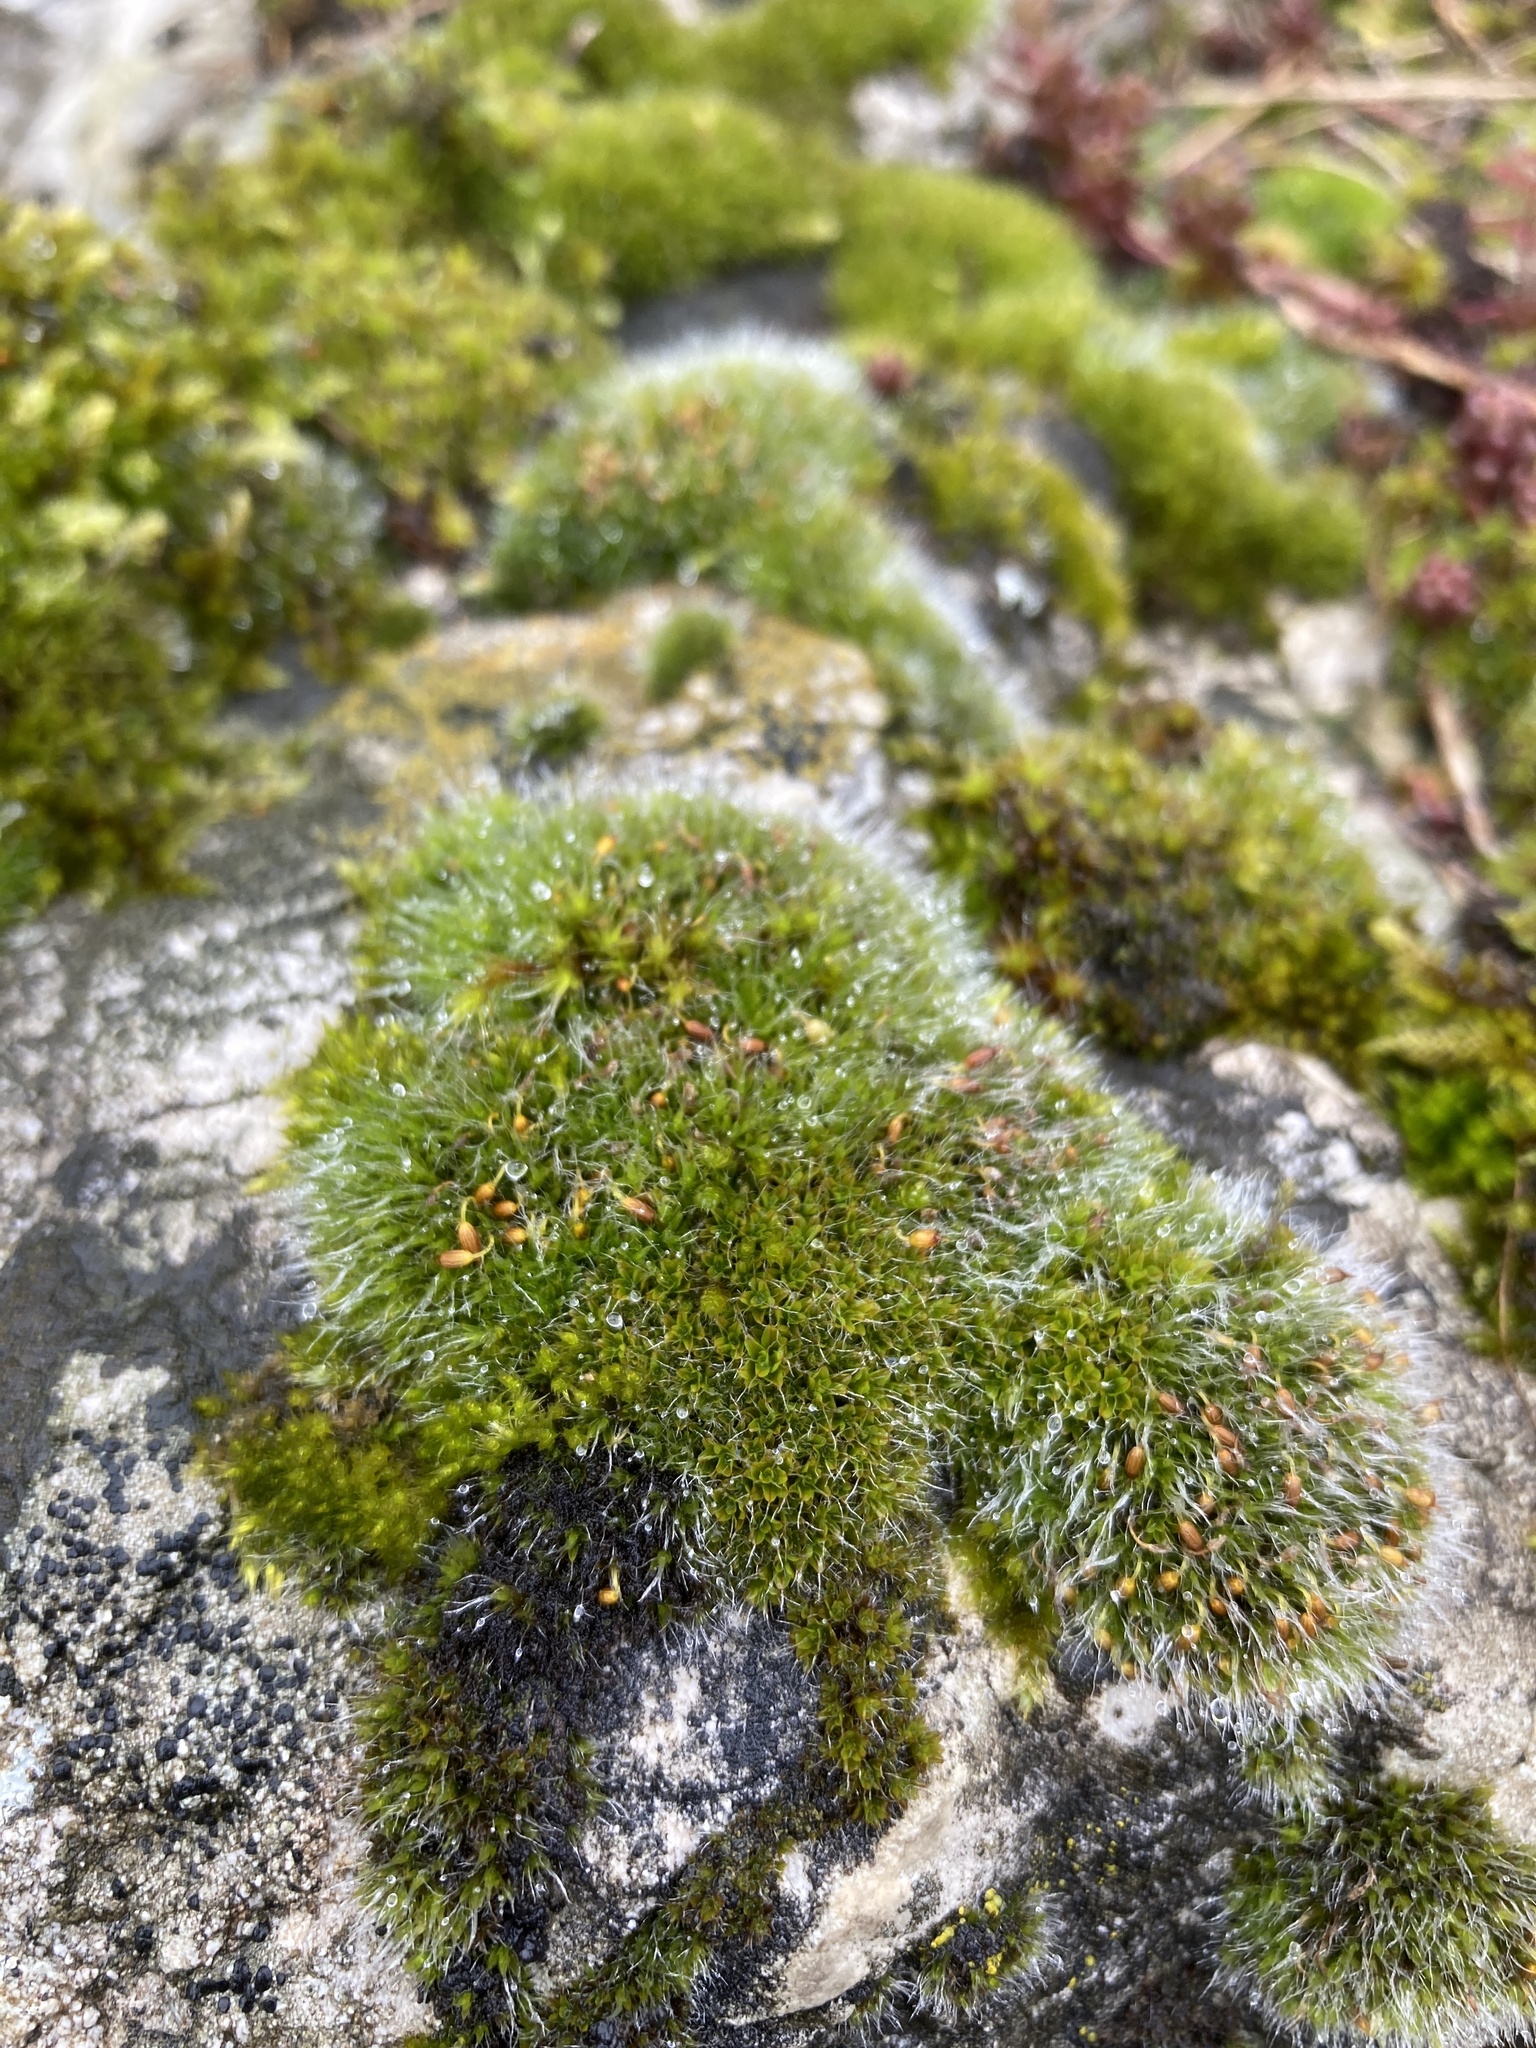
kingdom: Plantae
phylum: Bryophyta
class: Bryopsida
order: Grimmiales
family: Grimmiaceae
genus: Grimmia
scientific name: Grimmia pulvinata
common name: Grey-cushioned grimmia
